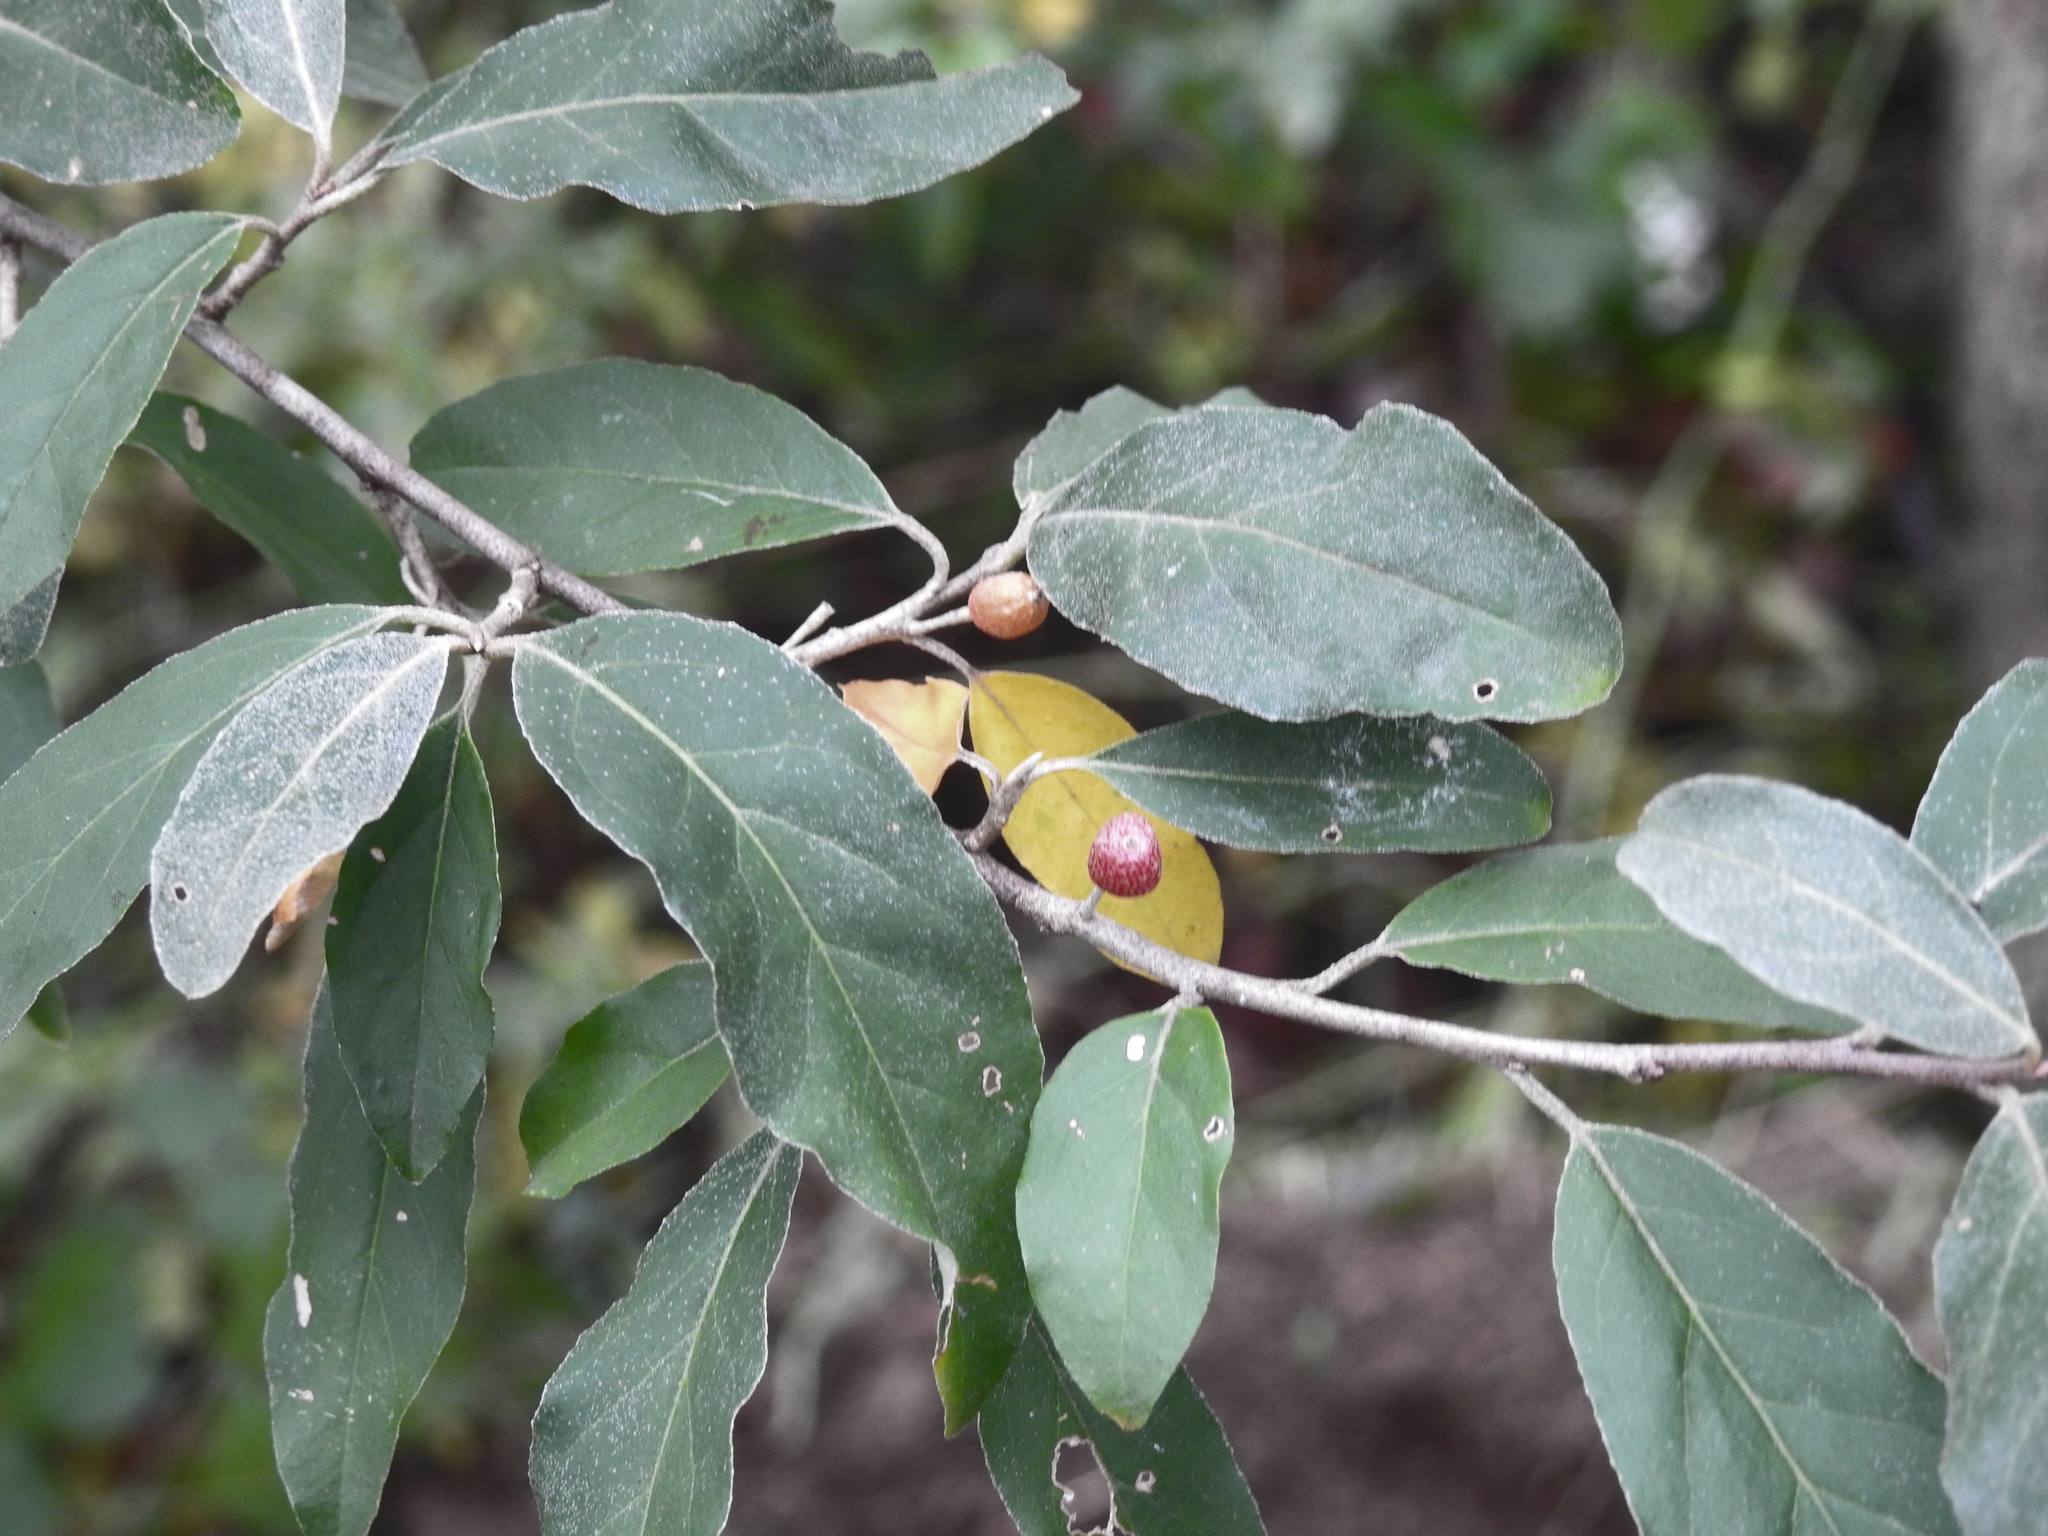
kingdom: Plantae
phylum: Tracheophyta
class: Magnoliopsida
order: Rosales
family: Elaeagnaceae
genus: Elaeagnus
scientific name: Elaeagnus umbellata
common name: Autumn olive
